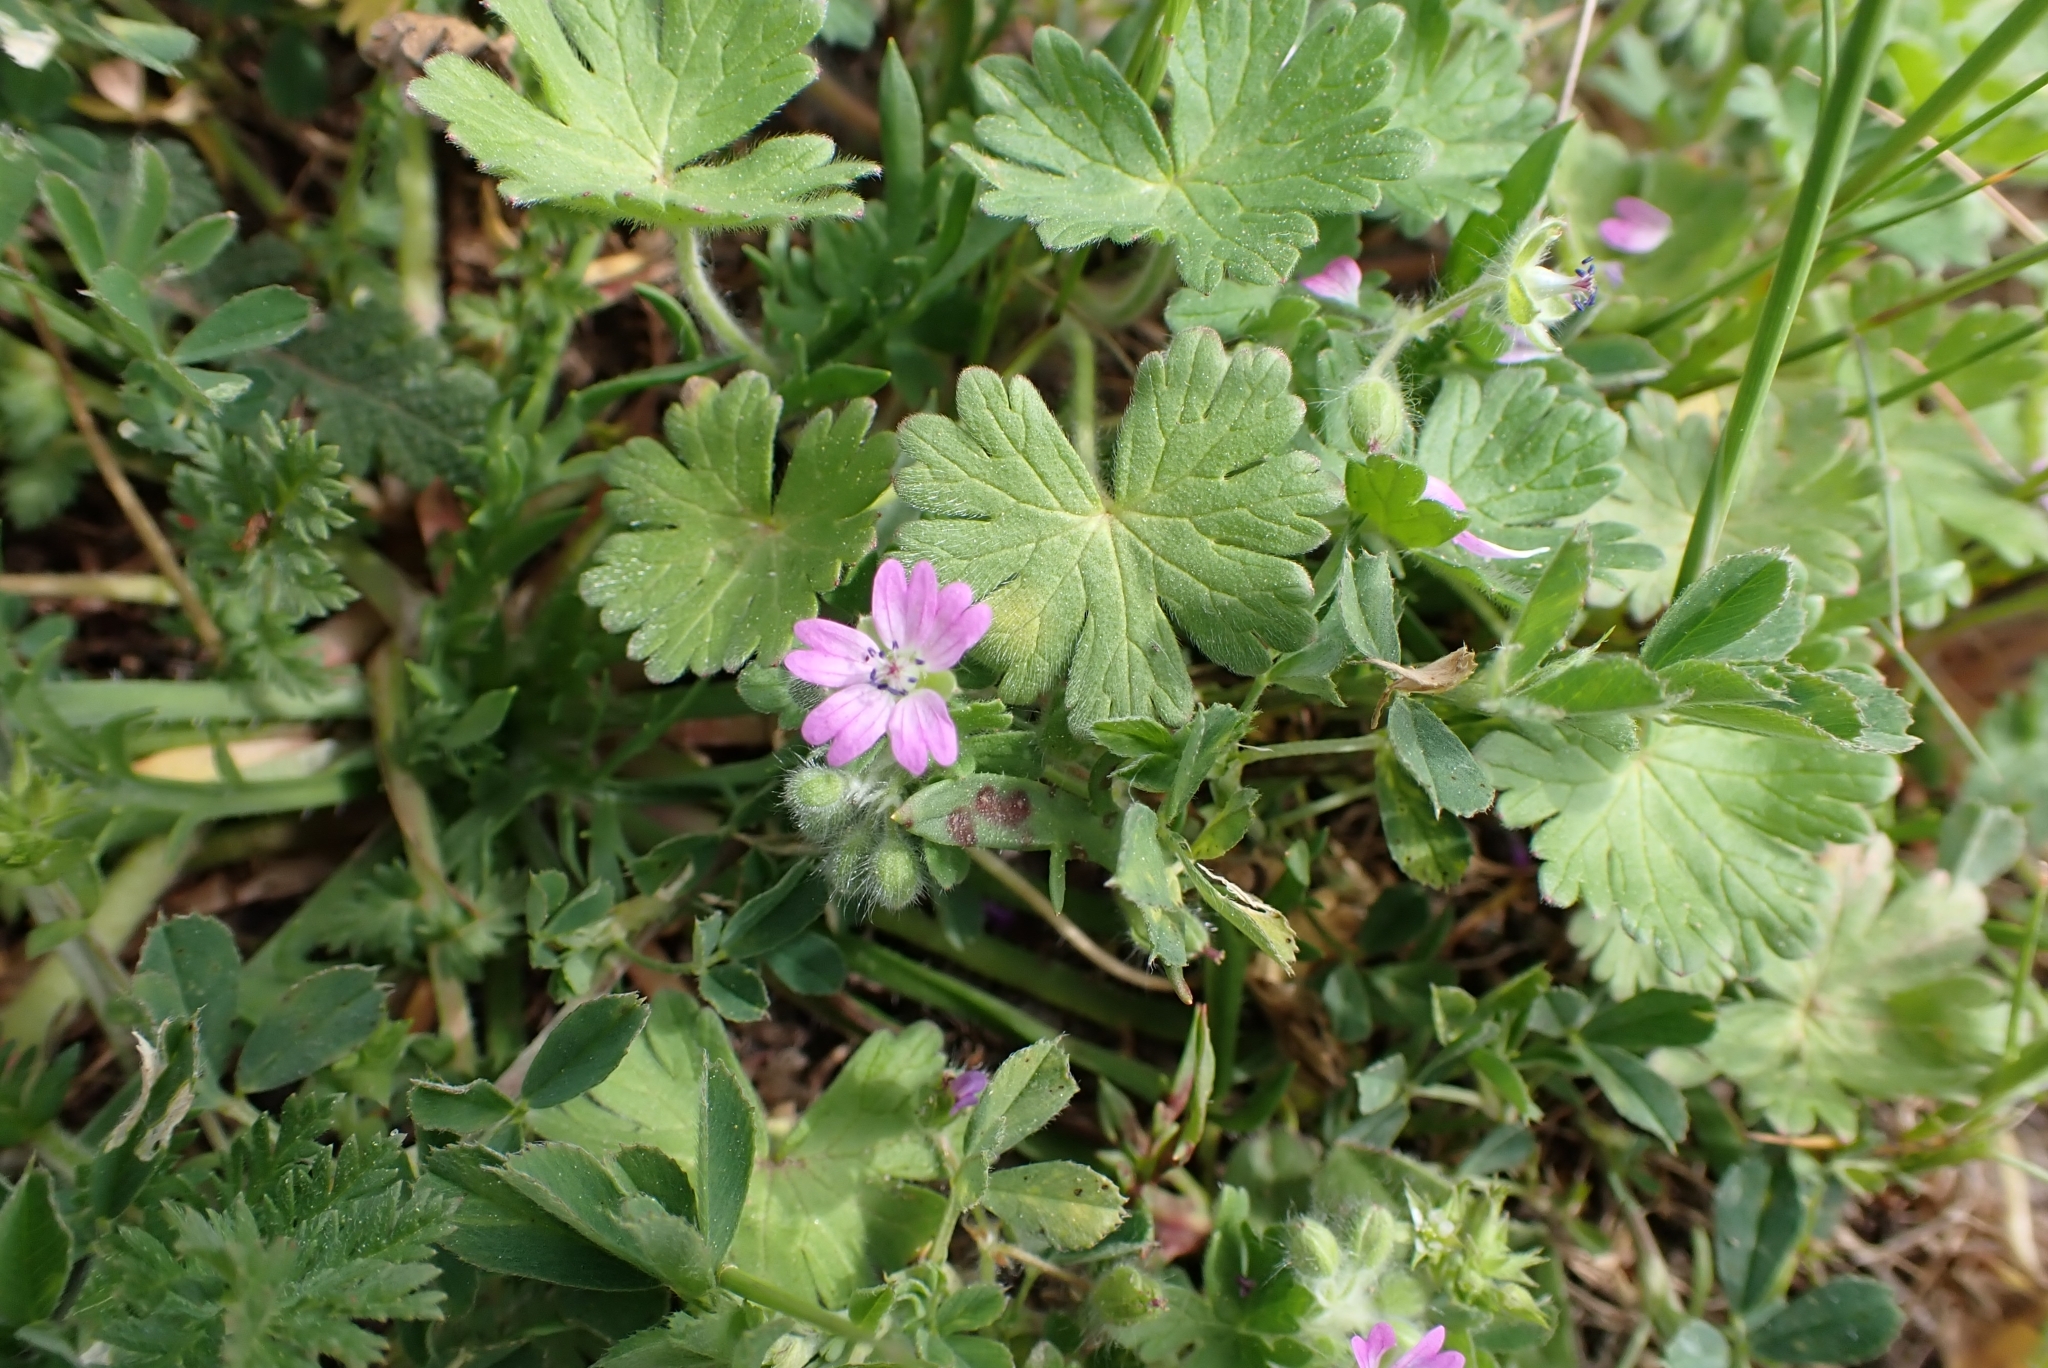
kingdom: Plantae
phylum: Tracheophyta
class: Magnoliopsida
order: Geraniales
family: Geraniaceae
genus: Geranium
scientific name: Geranium molle
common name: Dove's-foot crane's-bill
